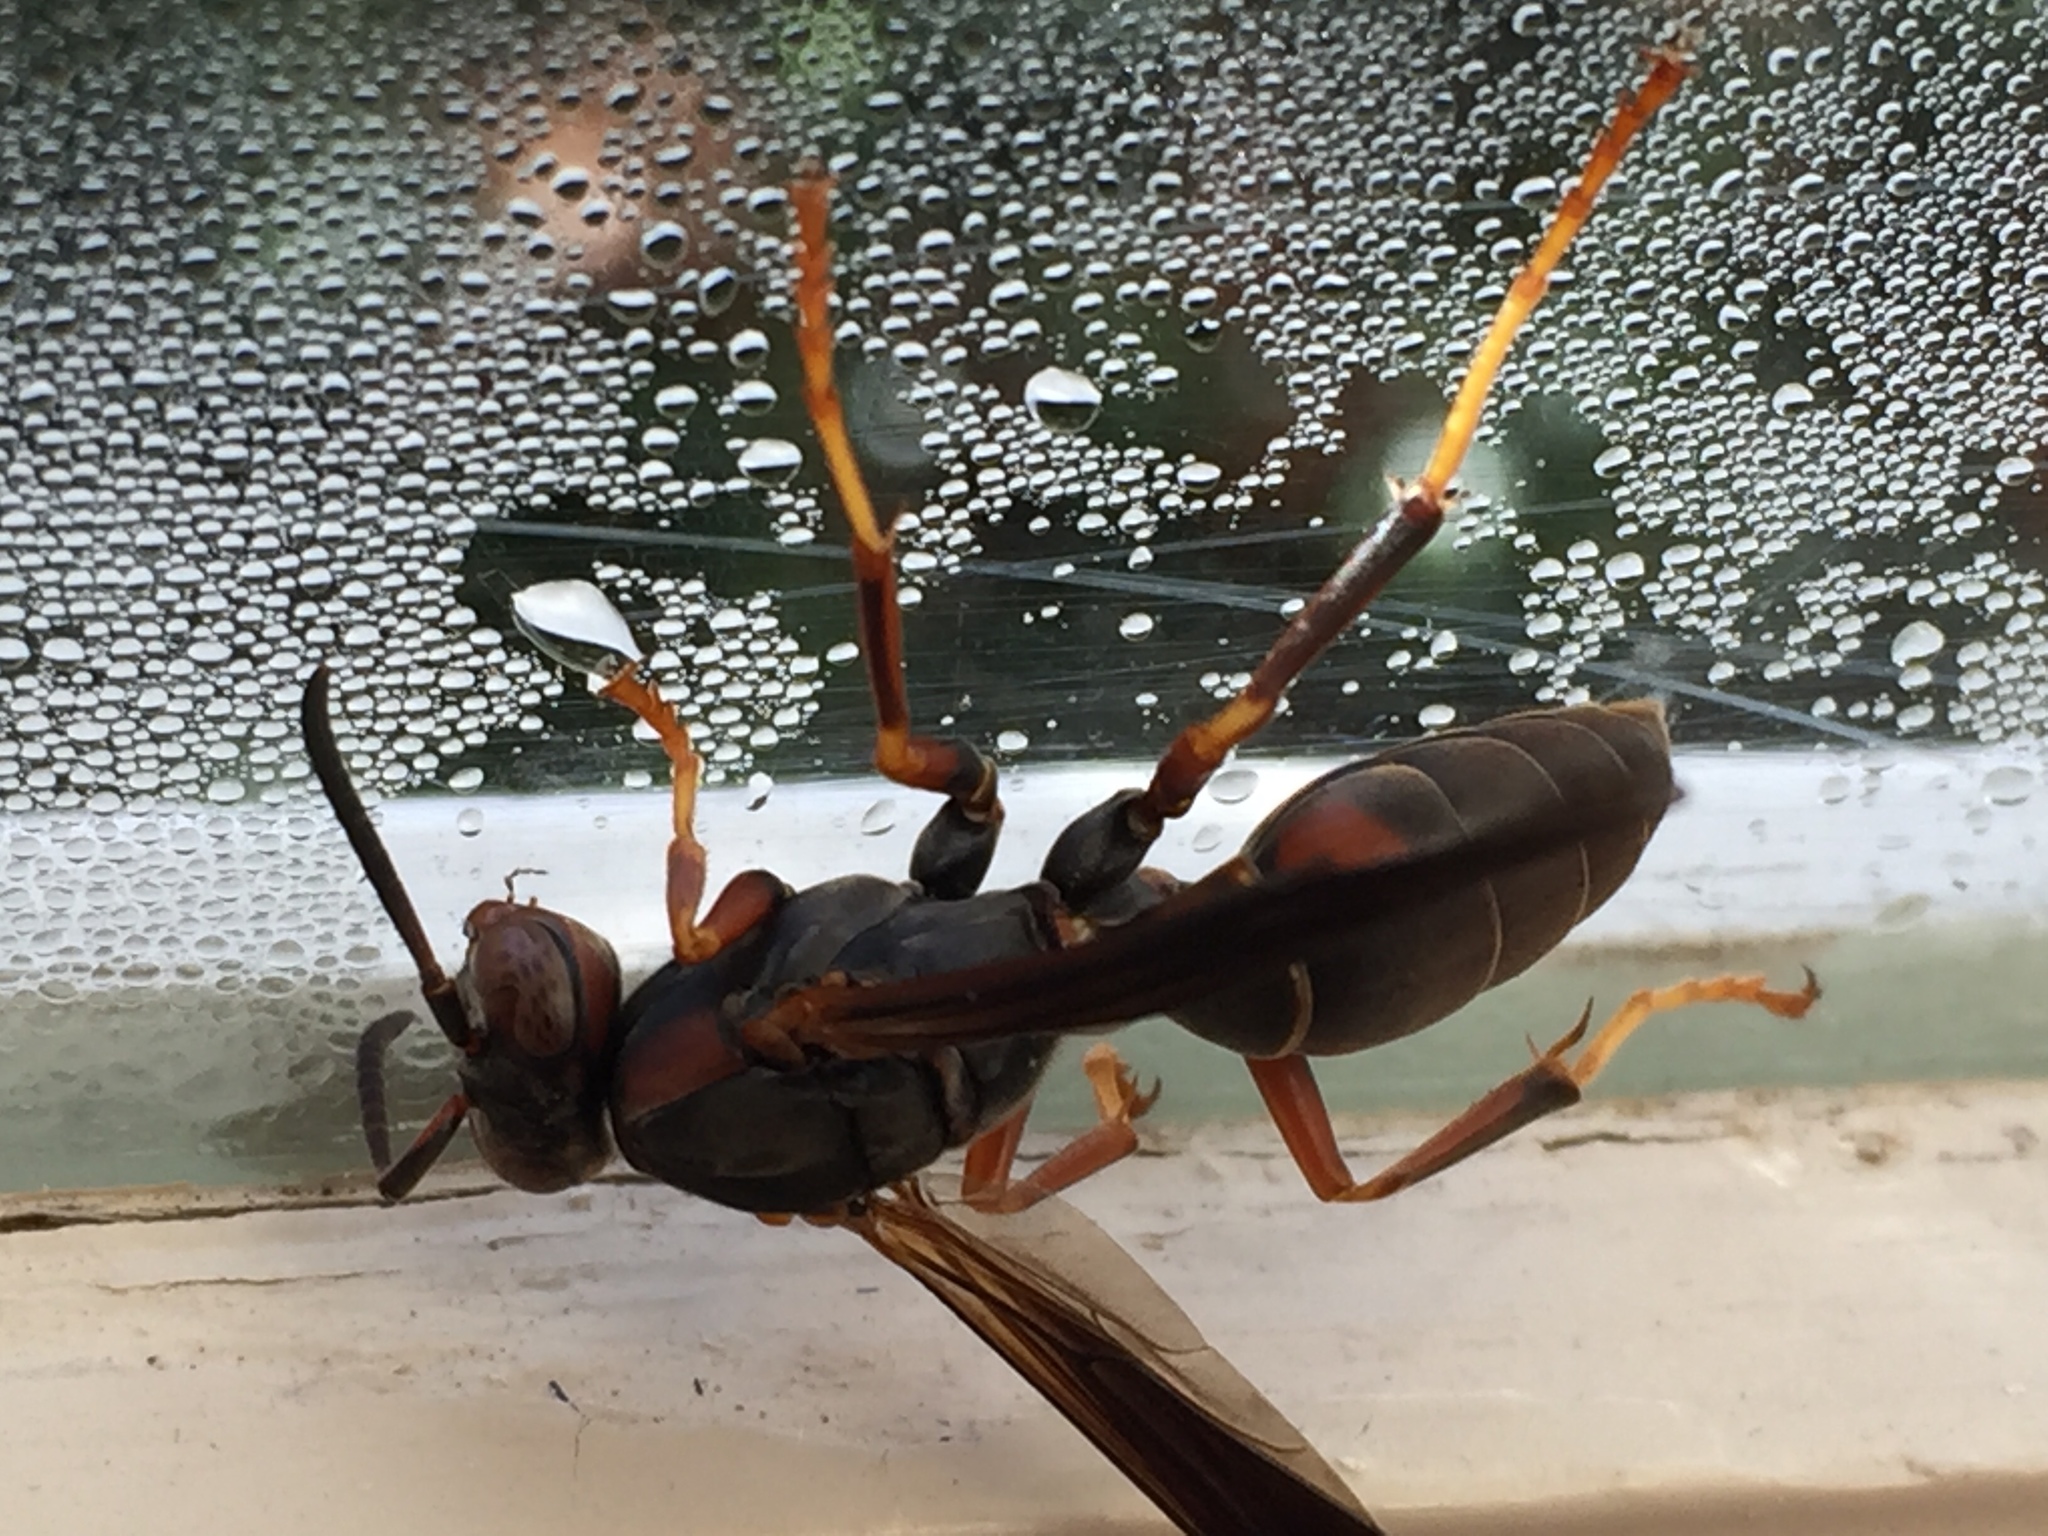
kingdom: Animalia
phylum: Arthropoda
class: Insecta
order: Hymenoptera
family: Eumenidae
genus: Polistes
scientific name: Polistes fuscatus
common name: Dark paper wasp
